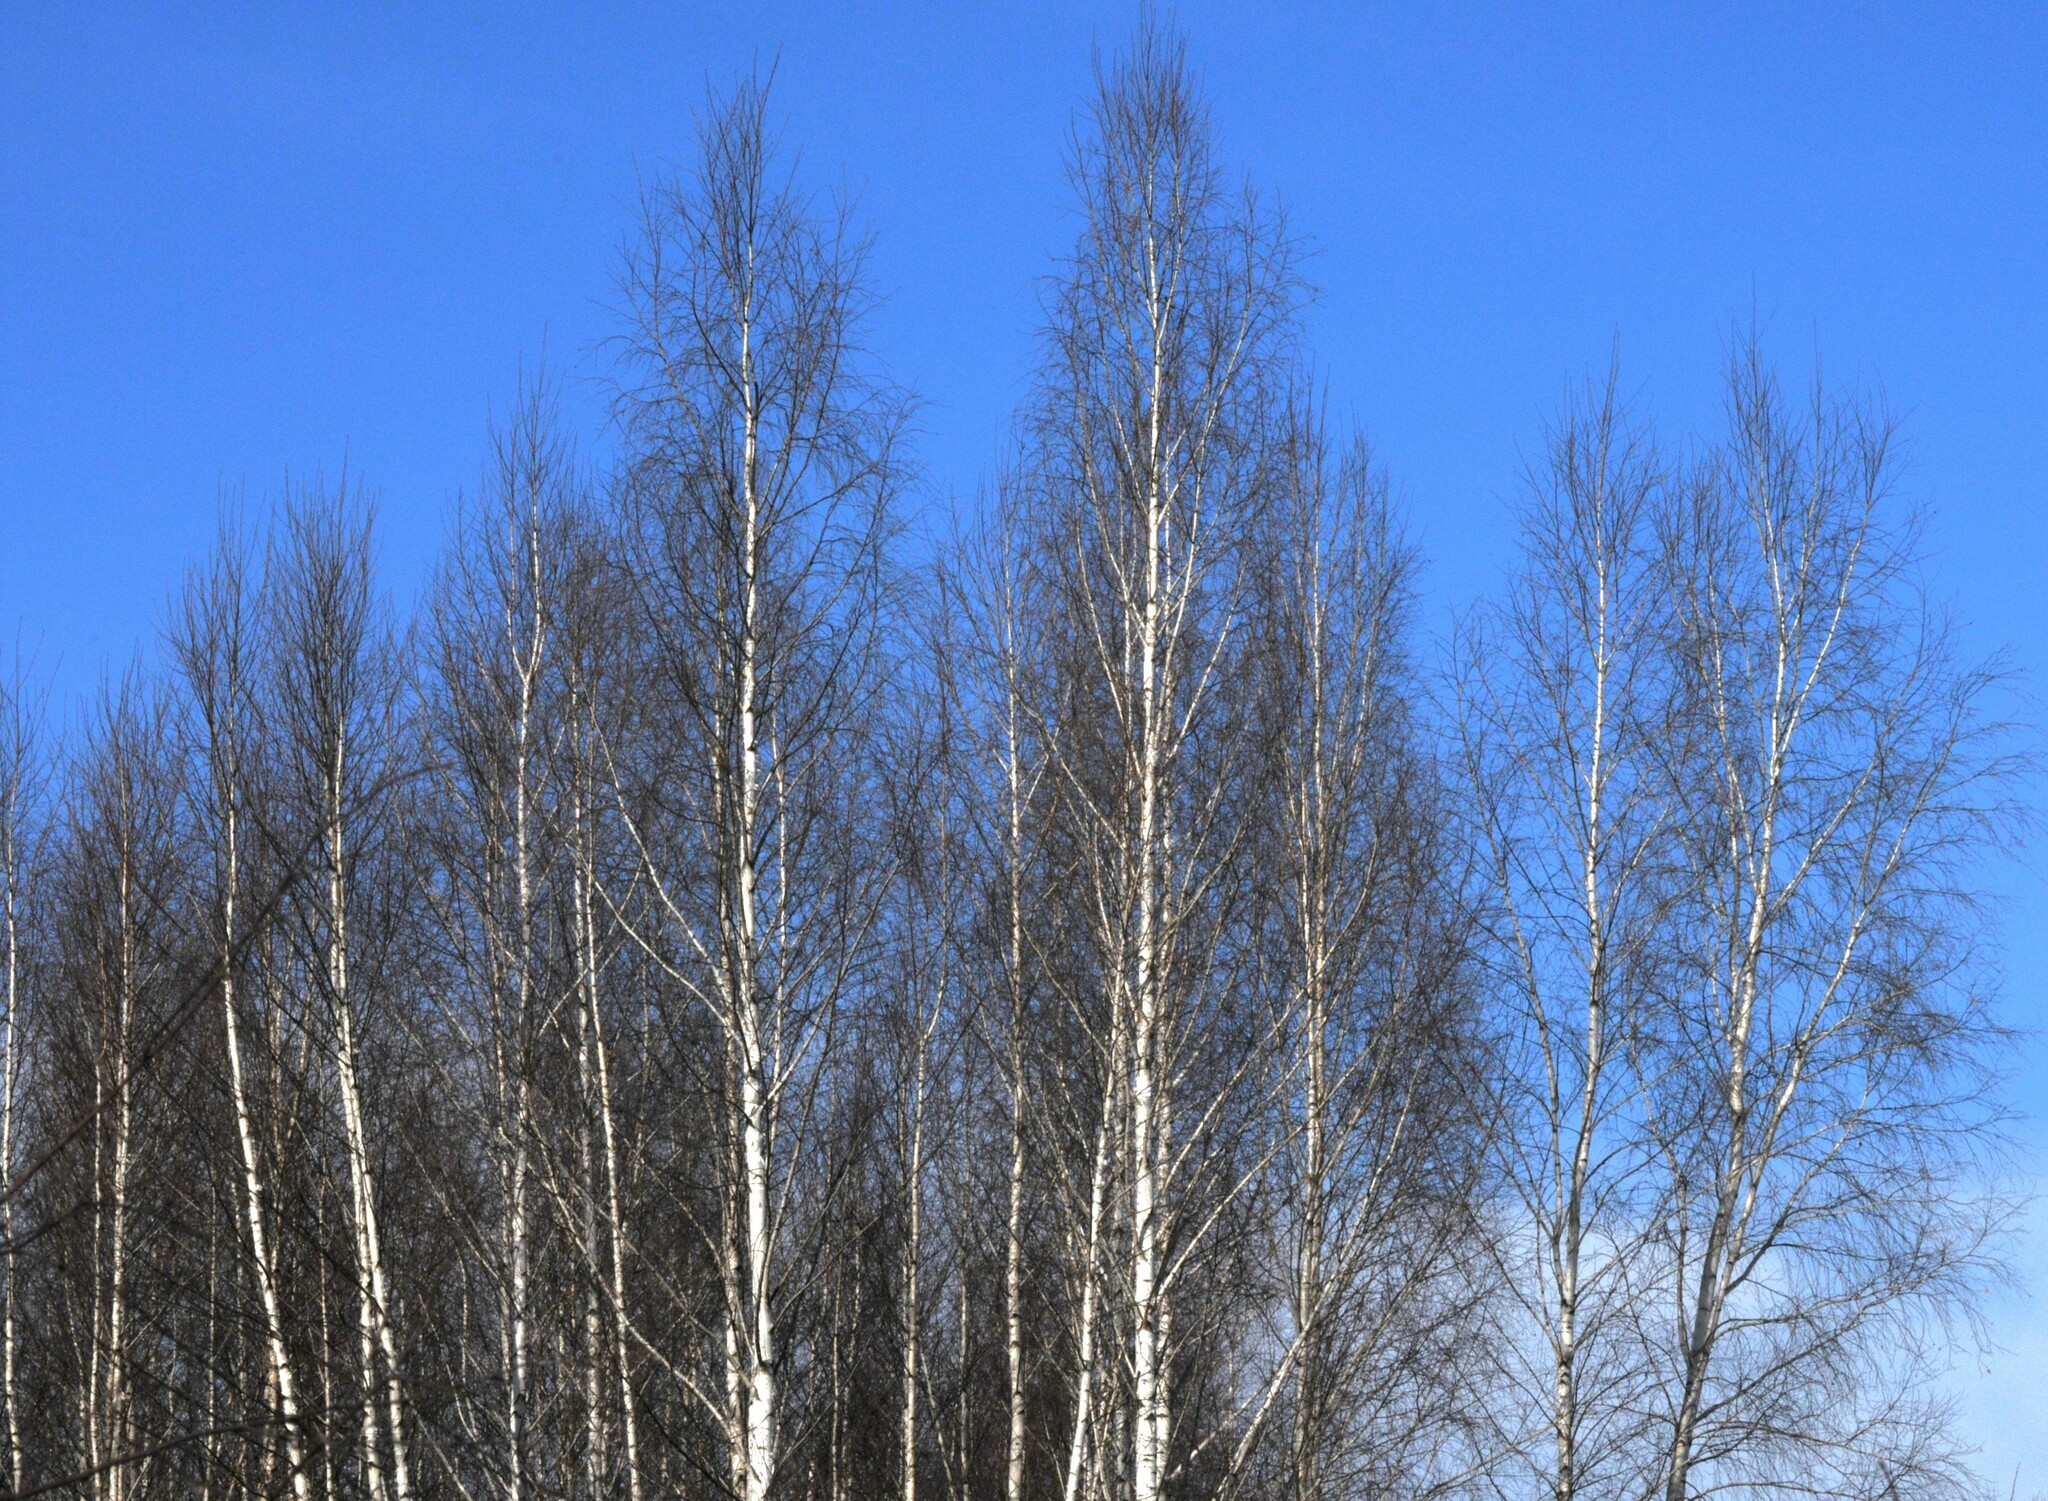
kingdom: Plantae
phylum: Tracheophyta
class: Magnoliopsida
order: Fagales
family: Betulaceae
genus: Betula
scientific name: Betula pendula
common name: Silver birch
